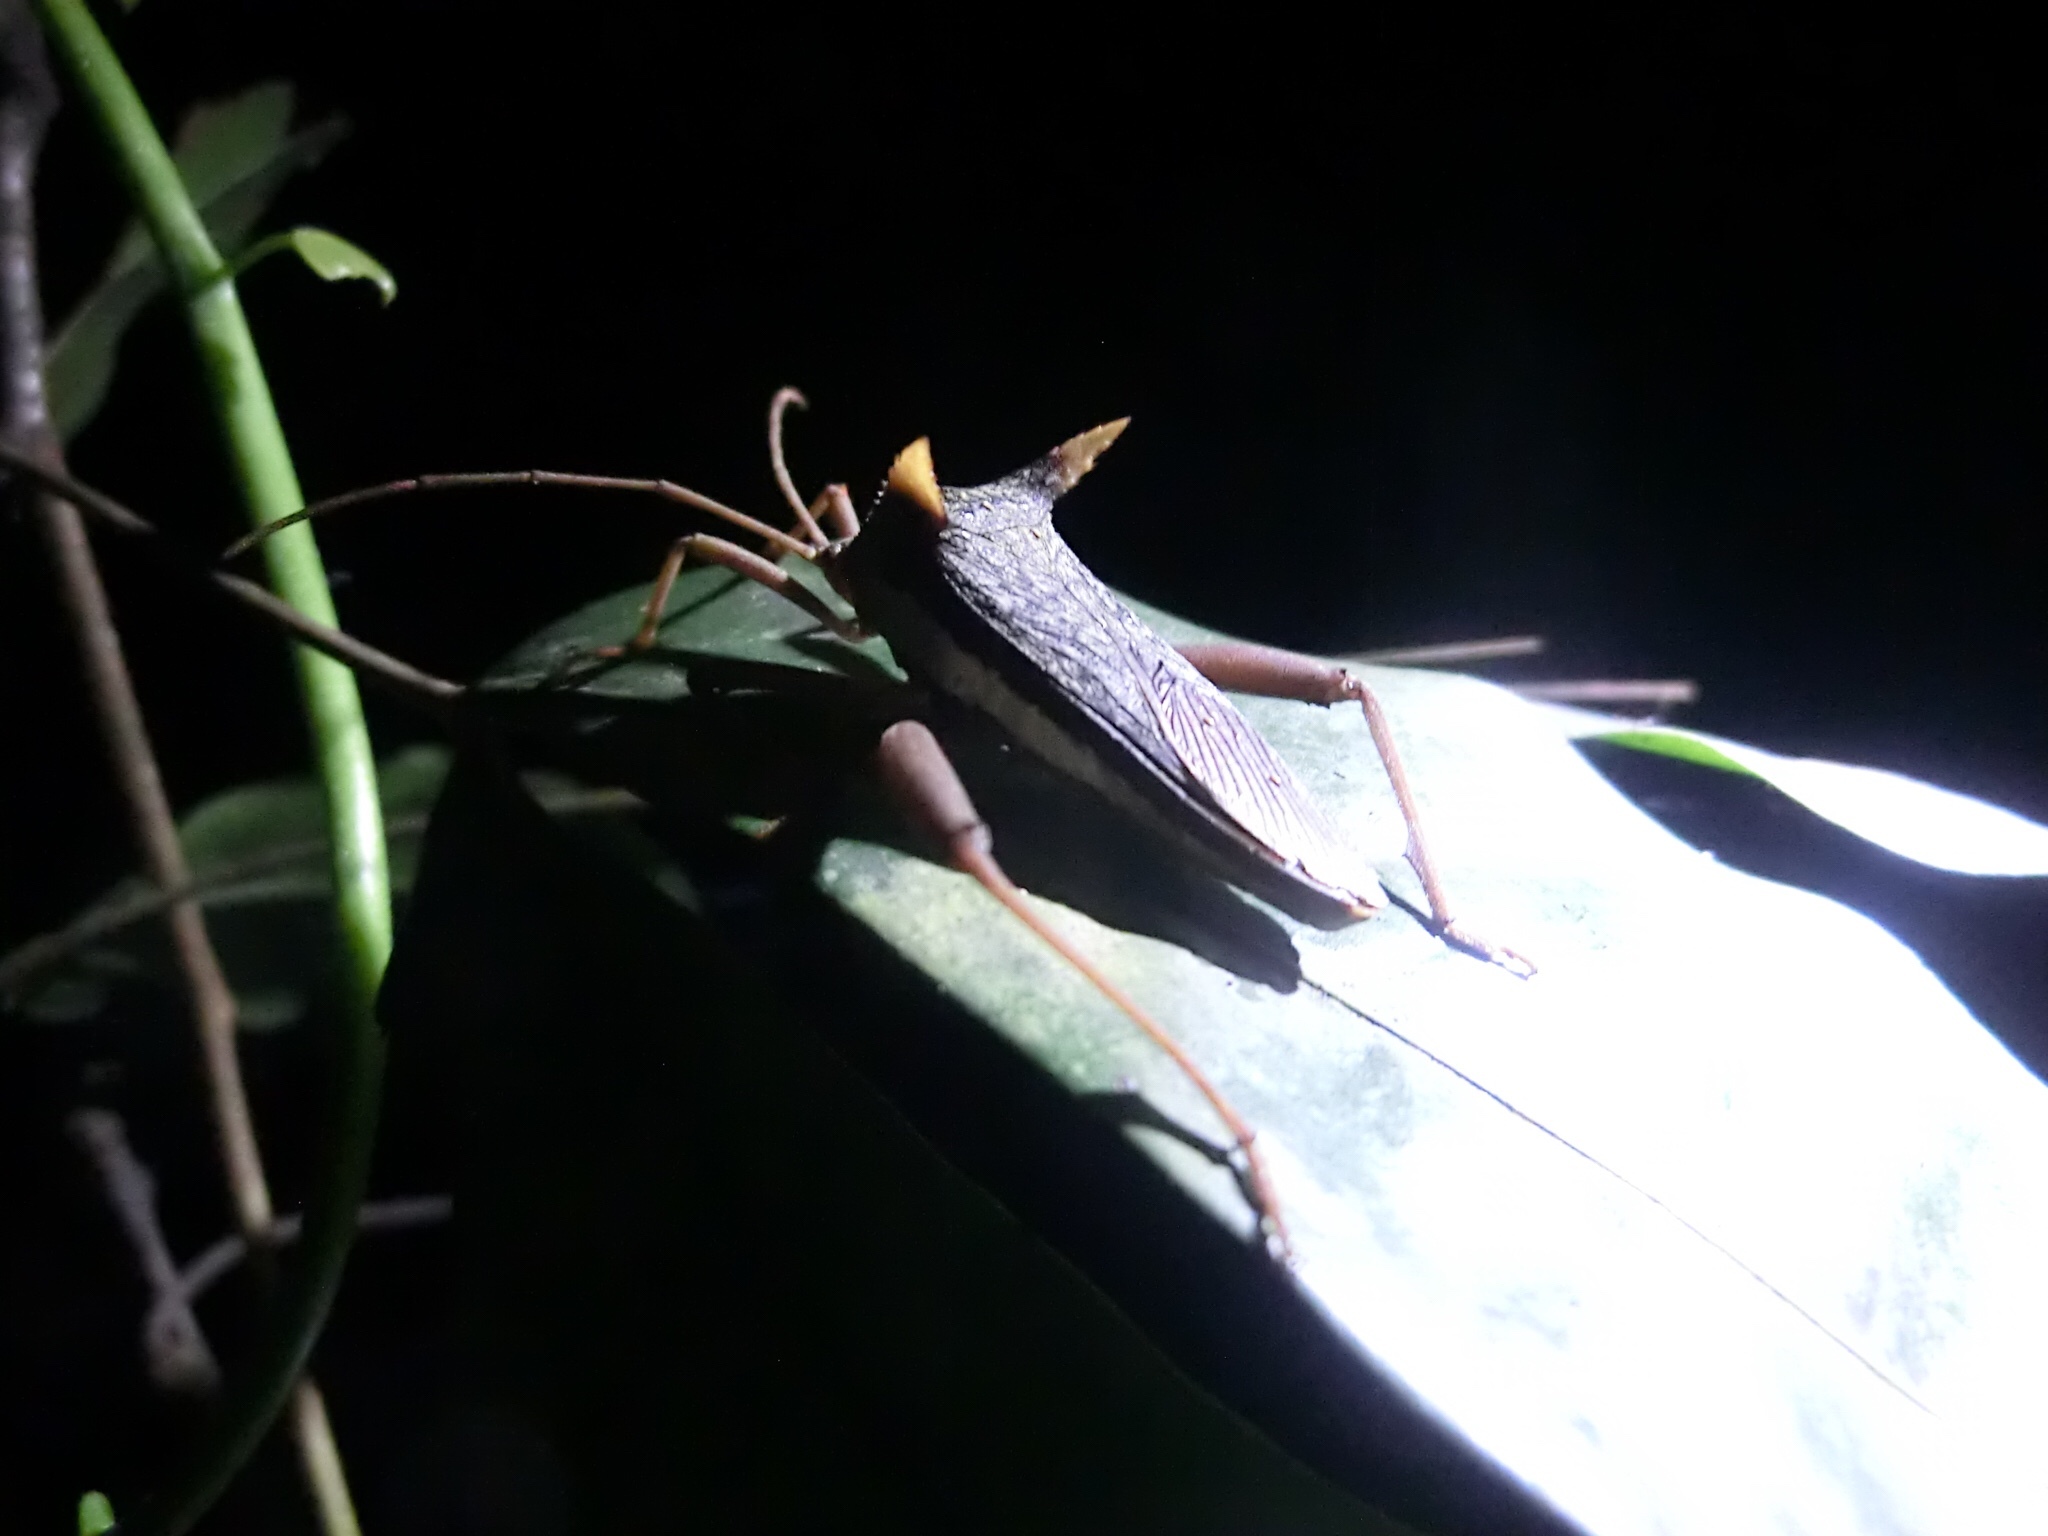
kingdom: Animalia
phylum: Arthropoda
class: Insecta
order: Hemiptera
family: Coreidae
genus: Aspilosterna
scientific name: Aspilosterna lateralis
